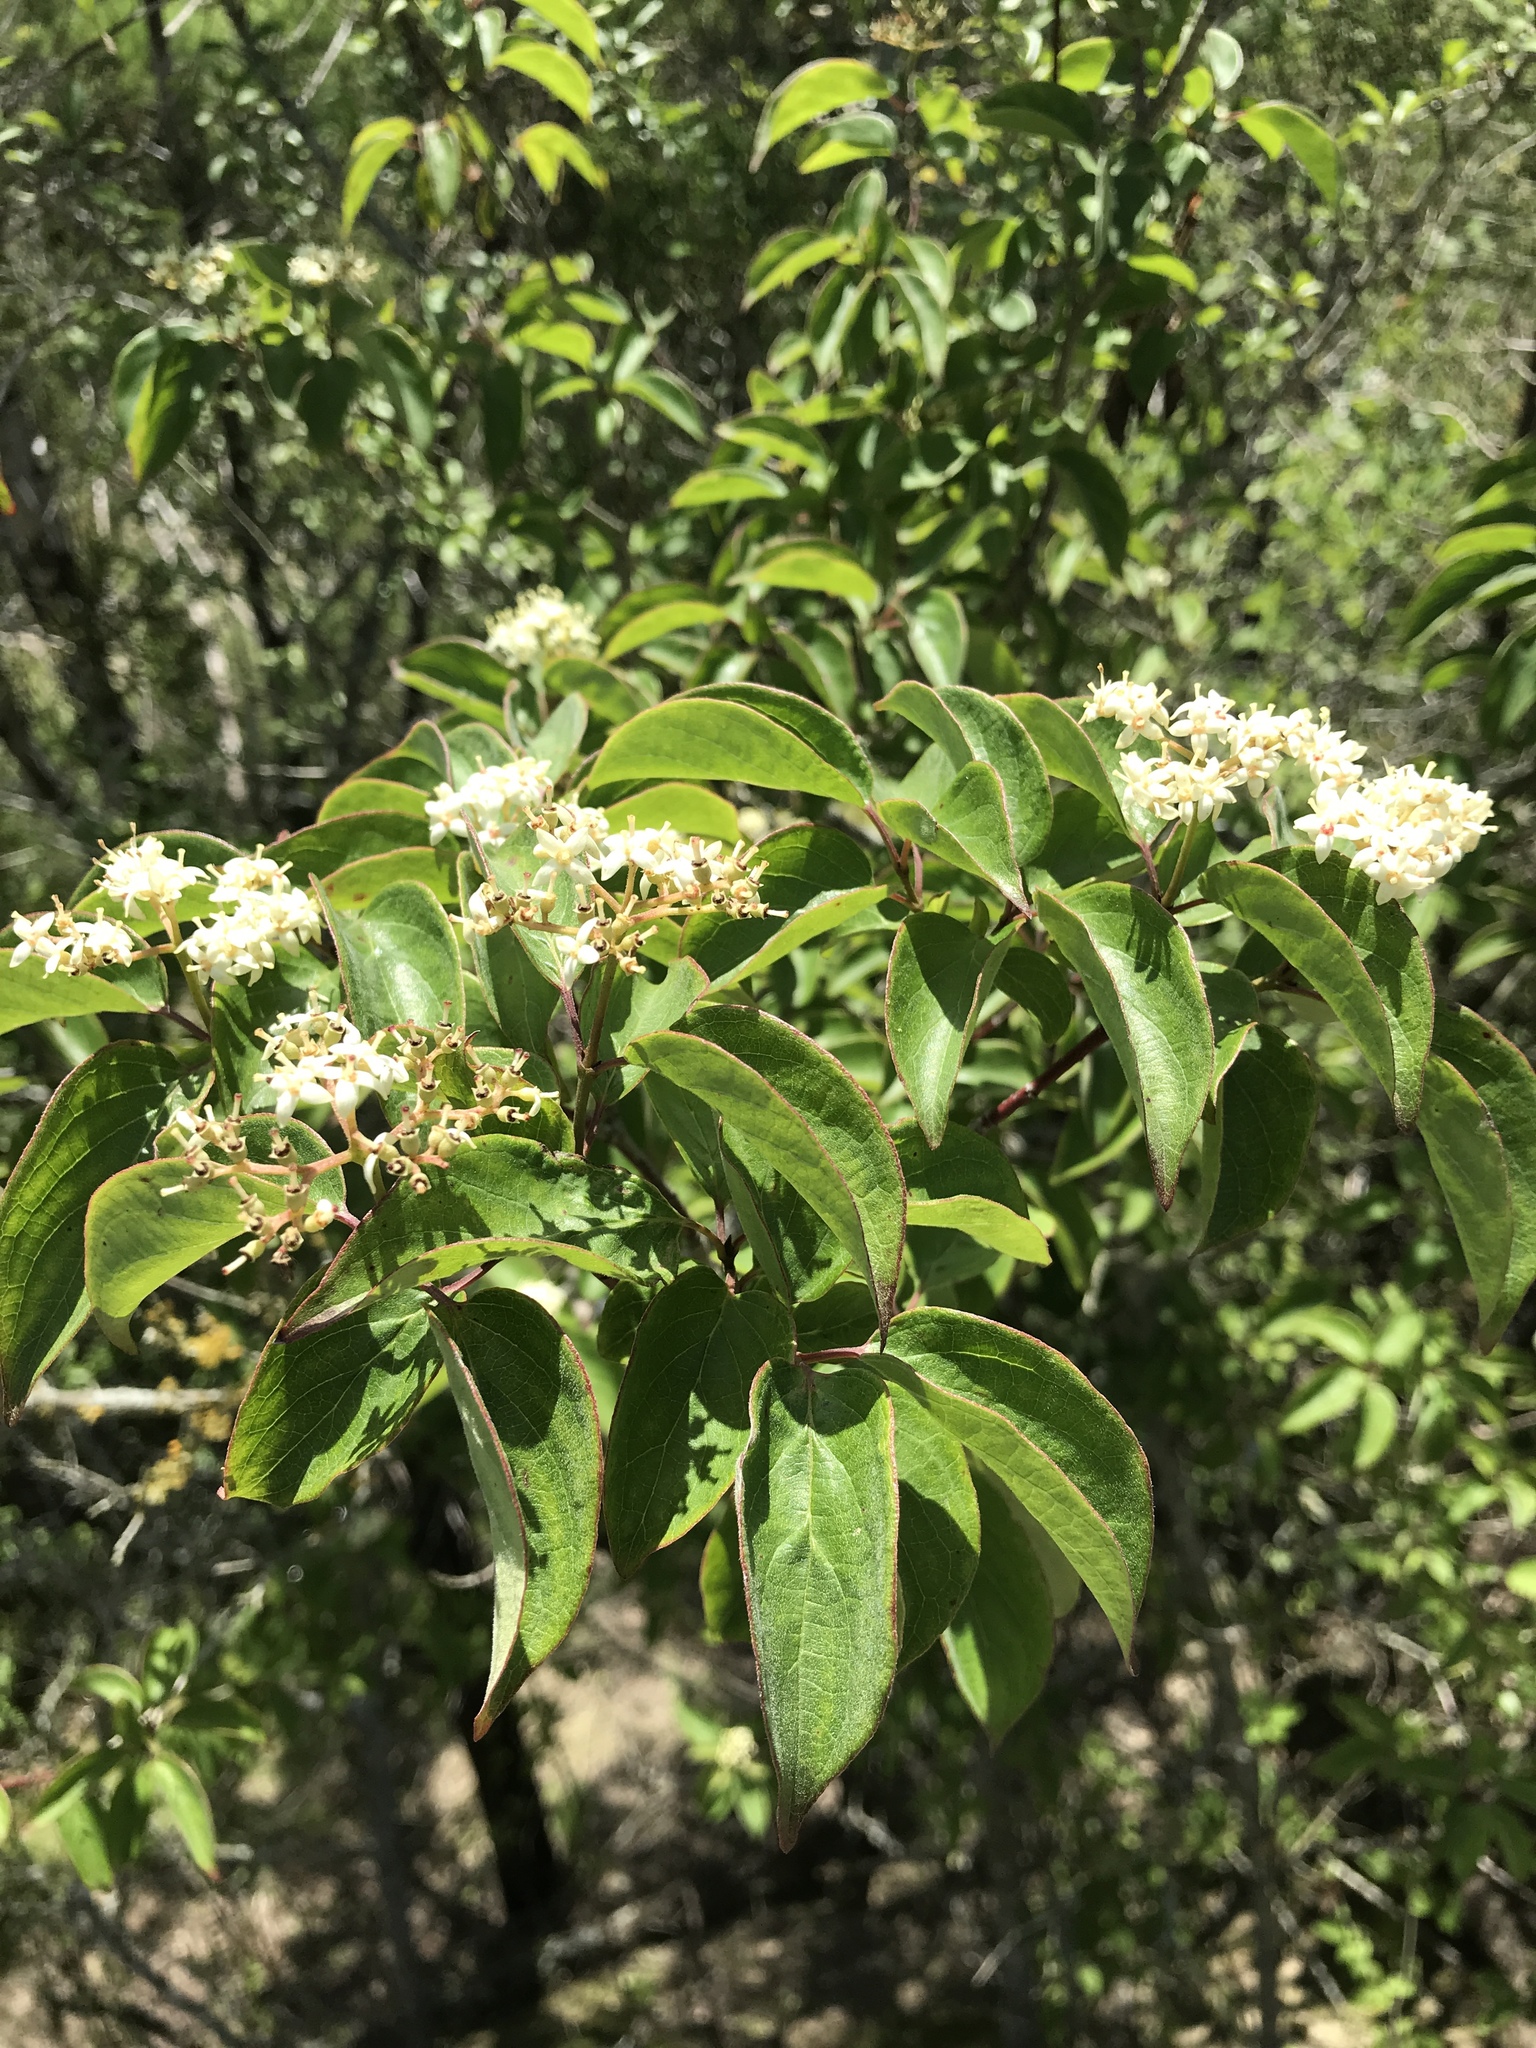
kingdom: Plantae
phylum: Tracheophyta
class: Magnoliopsida
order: Cornales
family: Cornaceae
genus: Cornus
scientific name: Cornus drummondii
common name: Rough-leaf dogwood
